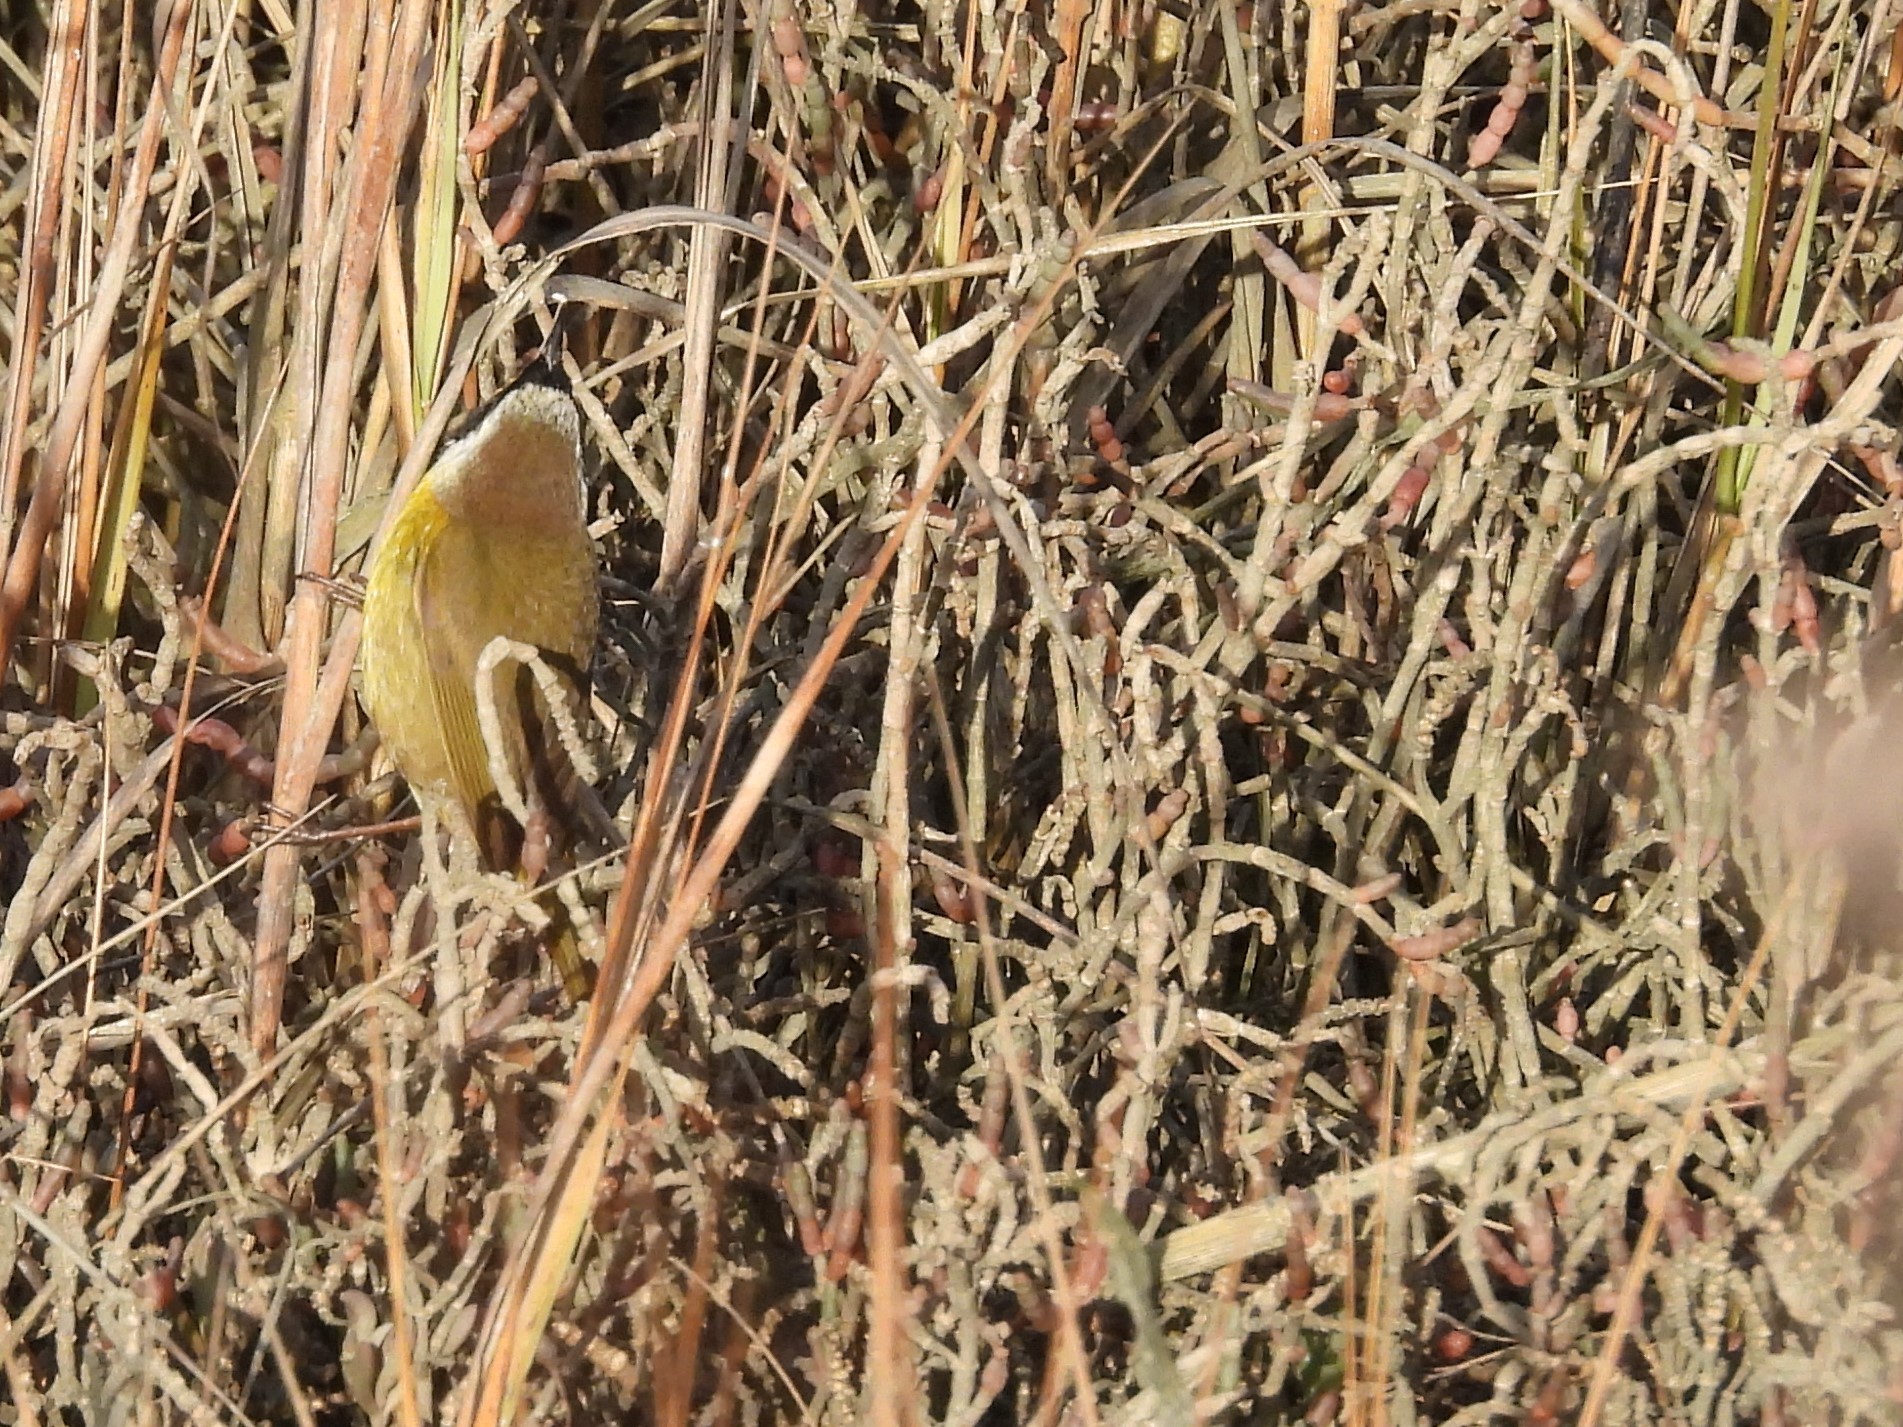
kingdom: Animalia
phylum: Chordata
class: Aves
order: Passeriformes
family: Parulidae
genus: Geothlypis
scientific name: Geothlypis trichas
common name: Common yellowthroat
